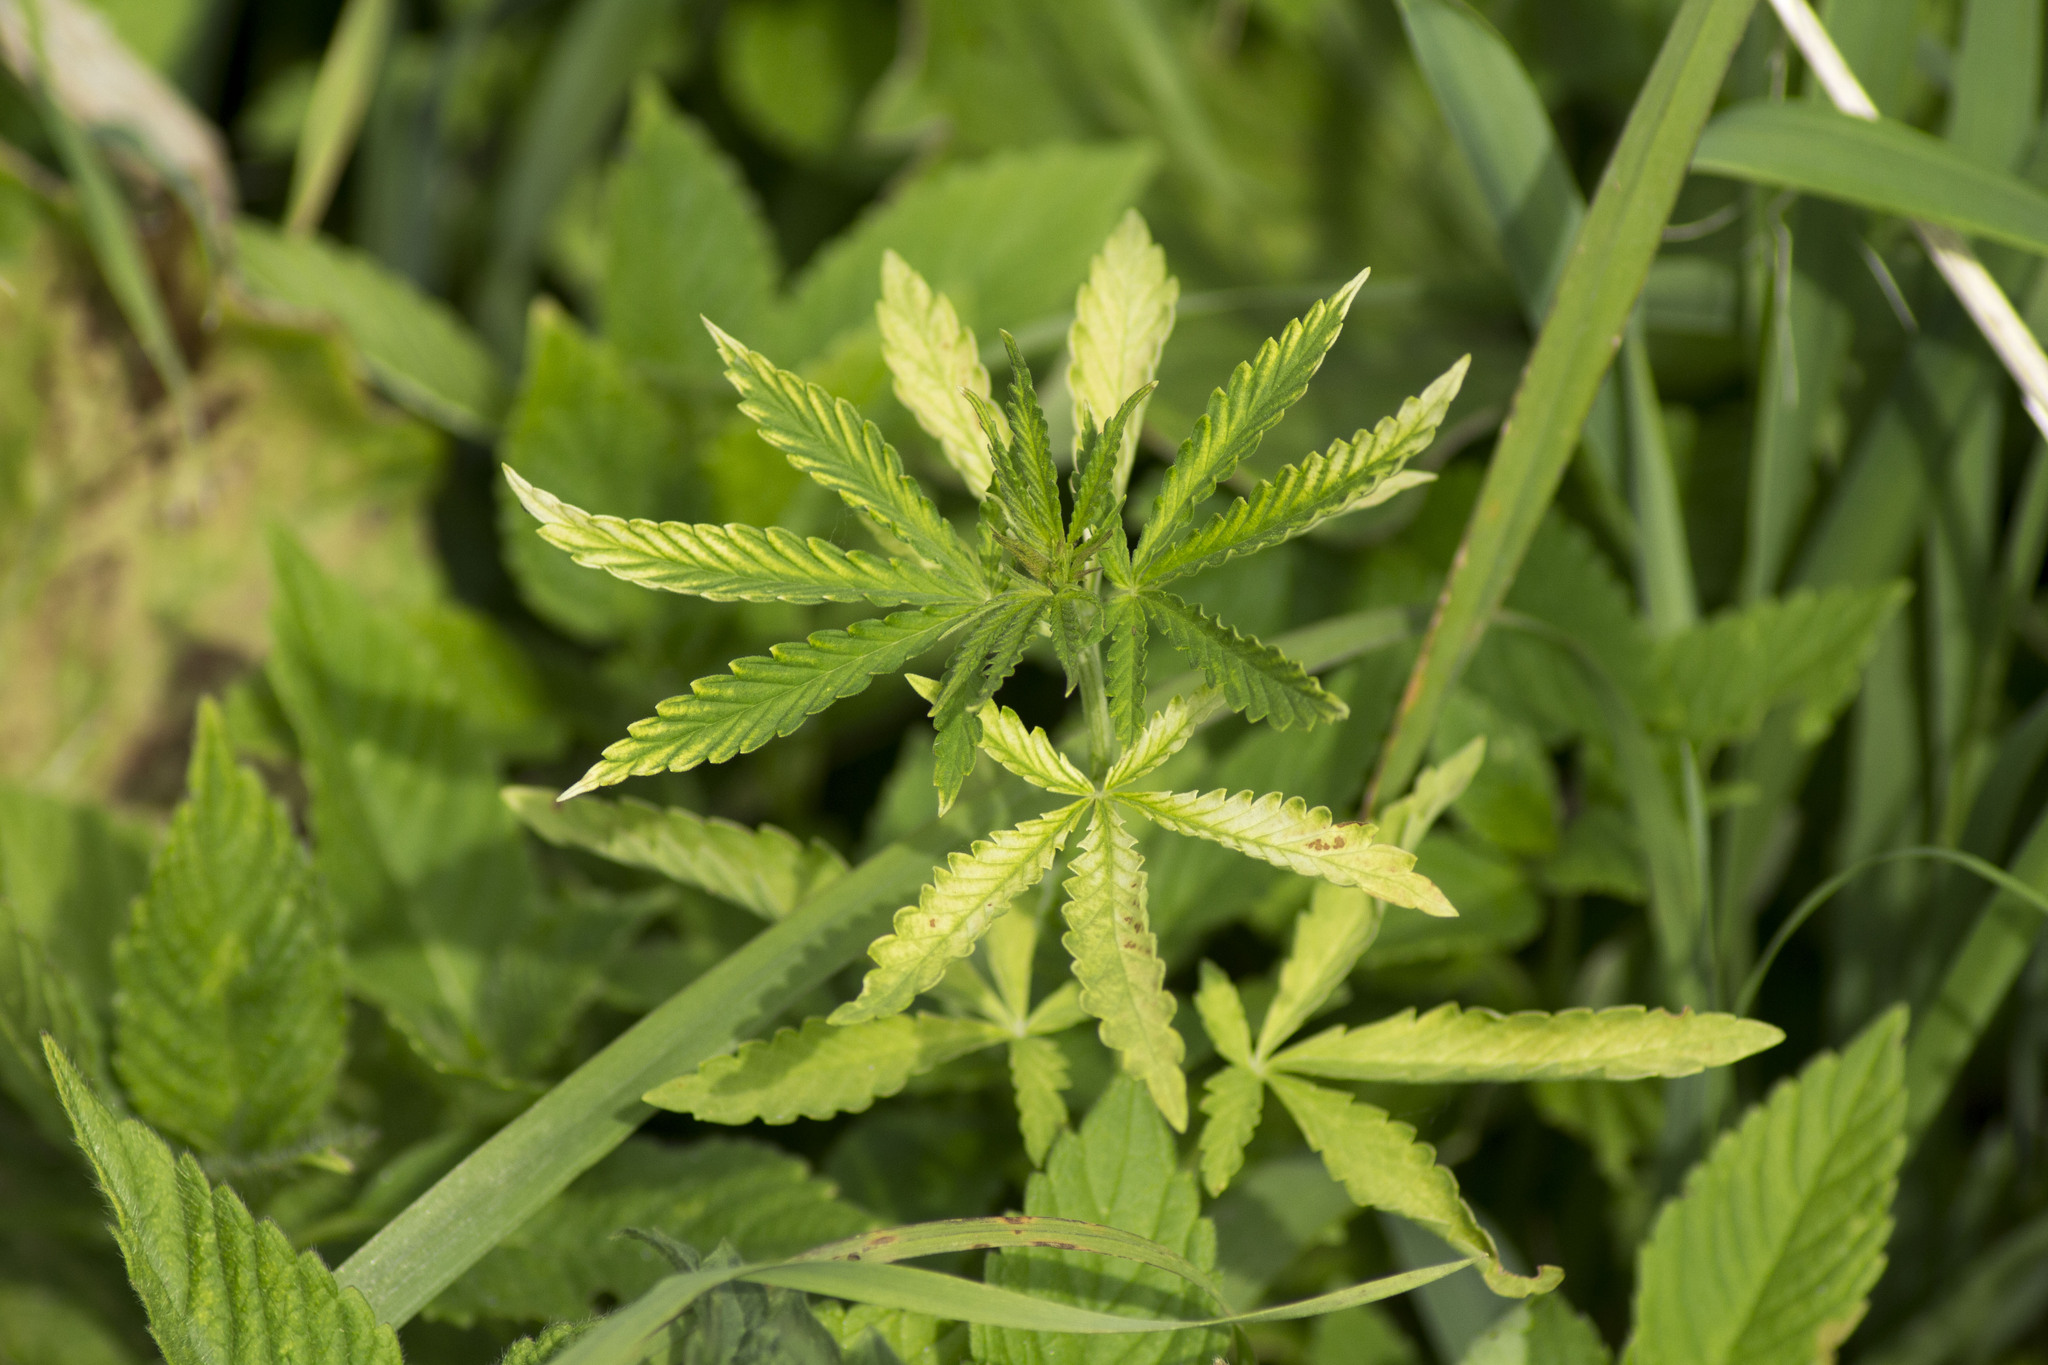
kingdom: Plantae
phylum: Tracheophyta
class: Magnoliopsida
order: Rosales
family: Cannabaceae
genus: Cannabis
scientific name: Cannabis sativa
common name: Hemp
